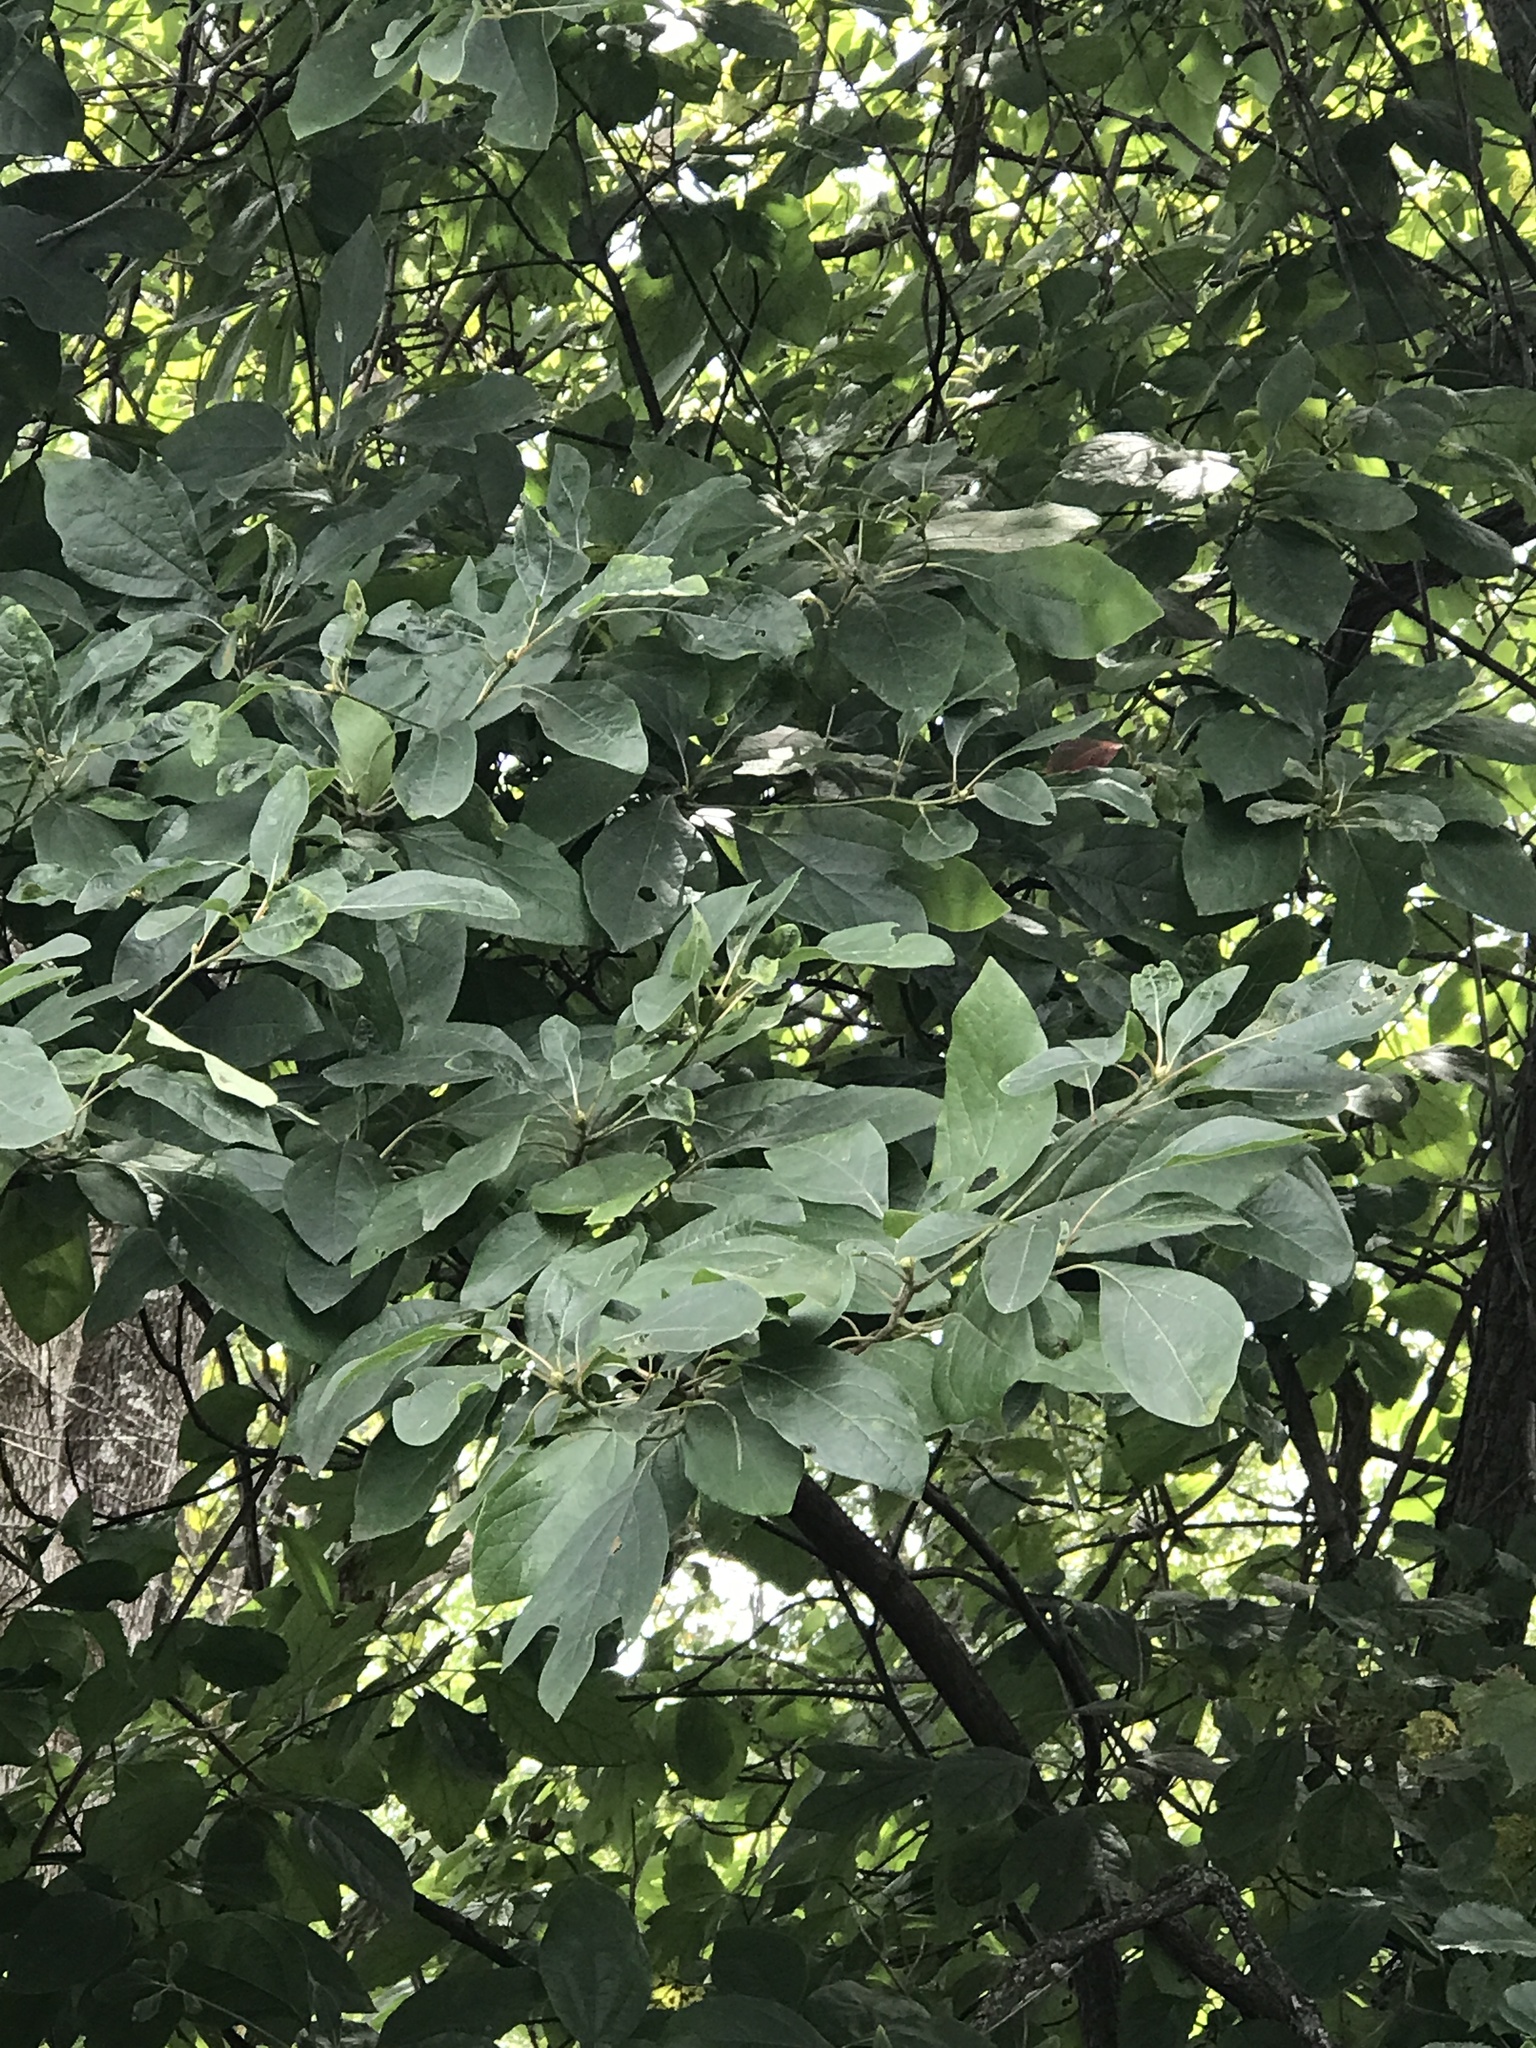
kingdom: Plantae
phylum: Tracheophyta
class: Magnoliopsida
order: Laurales
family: Lauraceae
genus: Sassafras
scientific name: Sassafras albidum
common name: Sassafras
